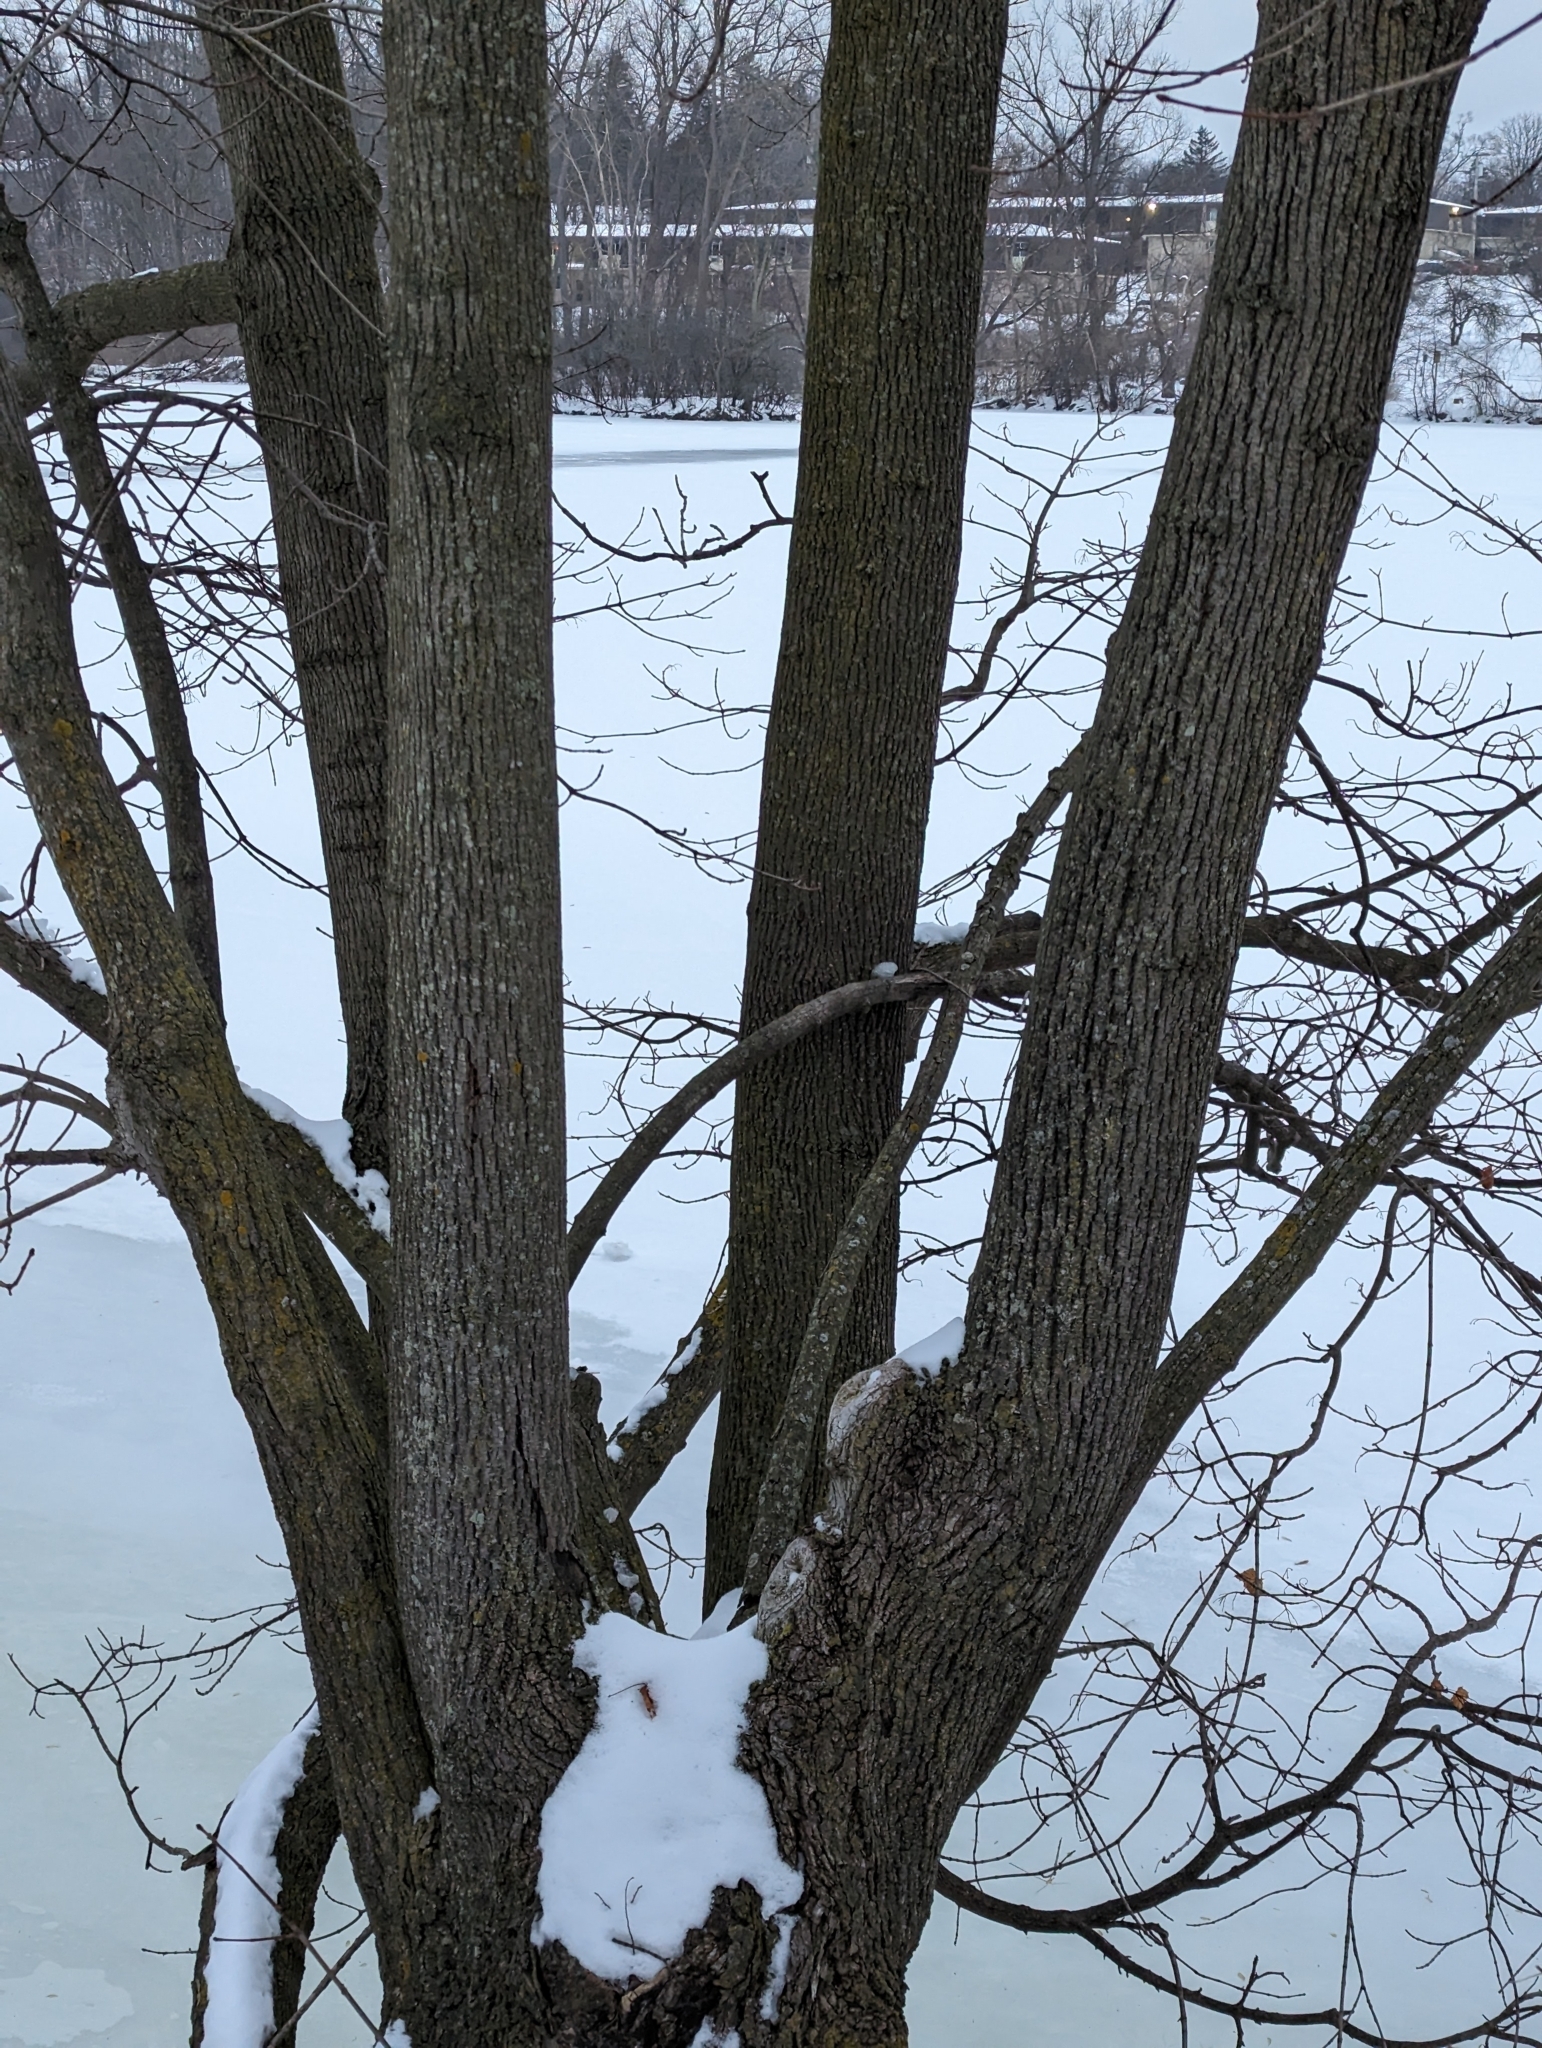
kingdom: Plantae
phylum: Tracheophyta
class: Magnoliopsida
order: Sapindales
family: Sapindaceae
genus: Acer
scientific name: Acer rubrum
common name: Red maple
